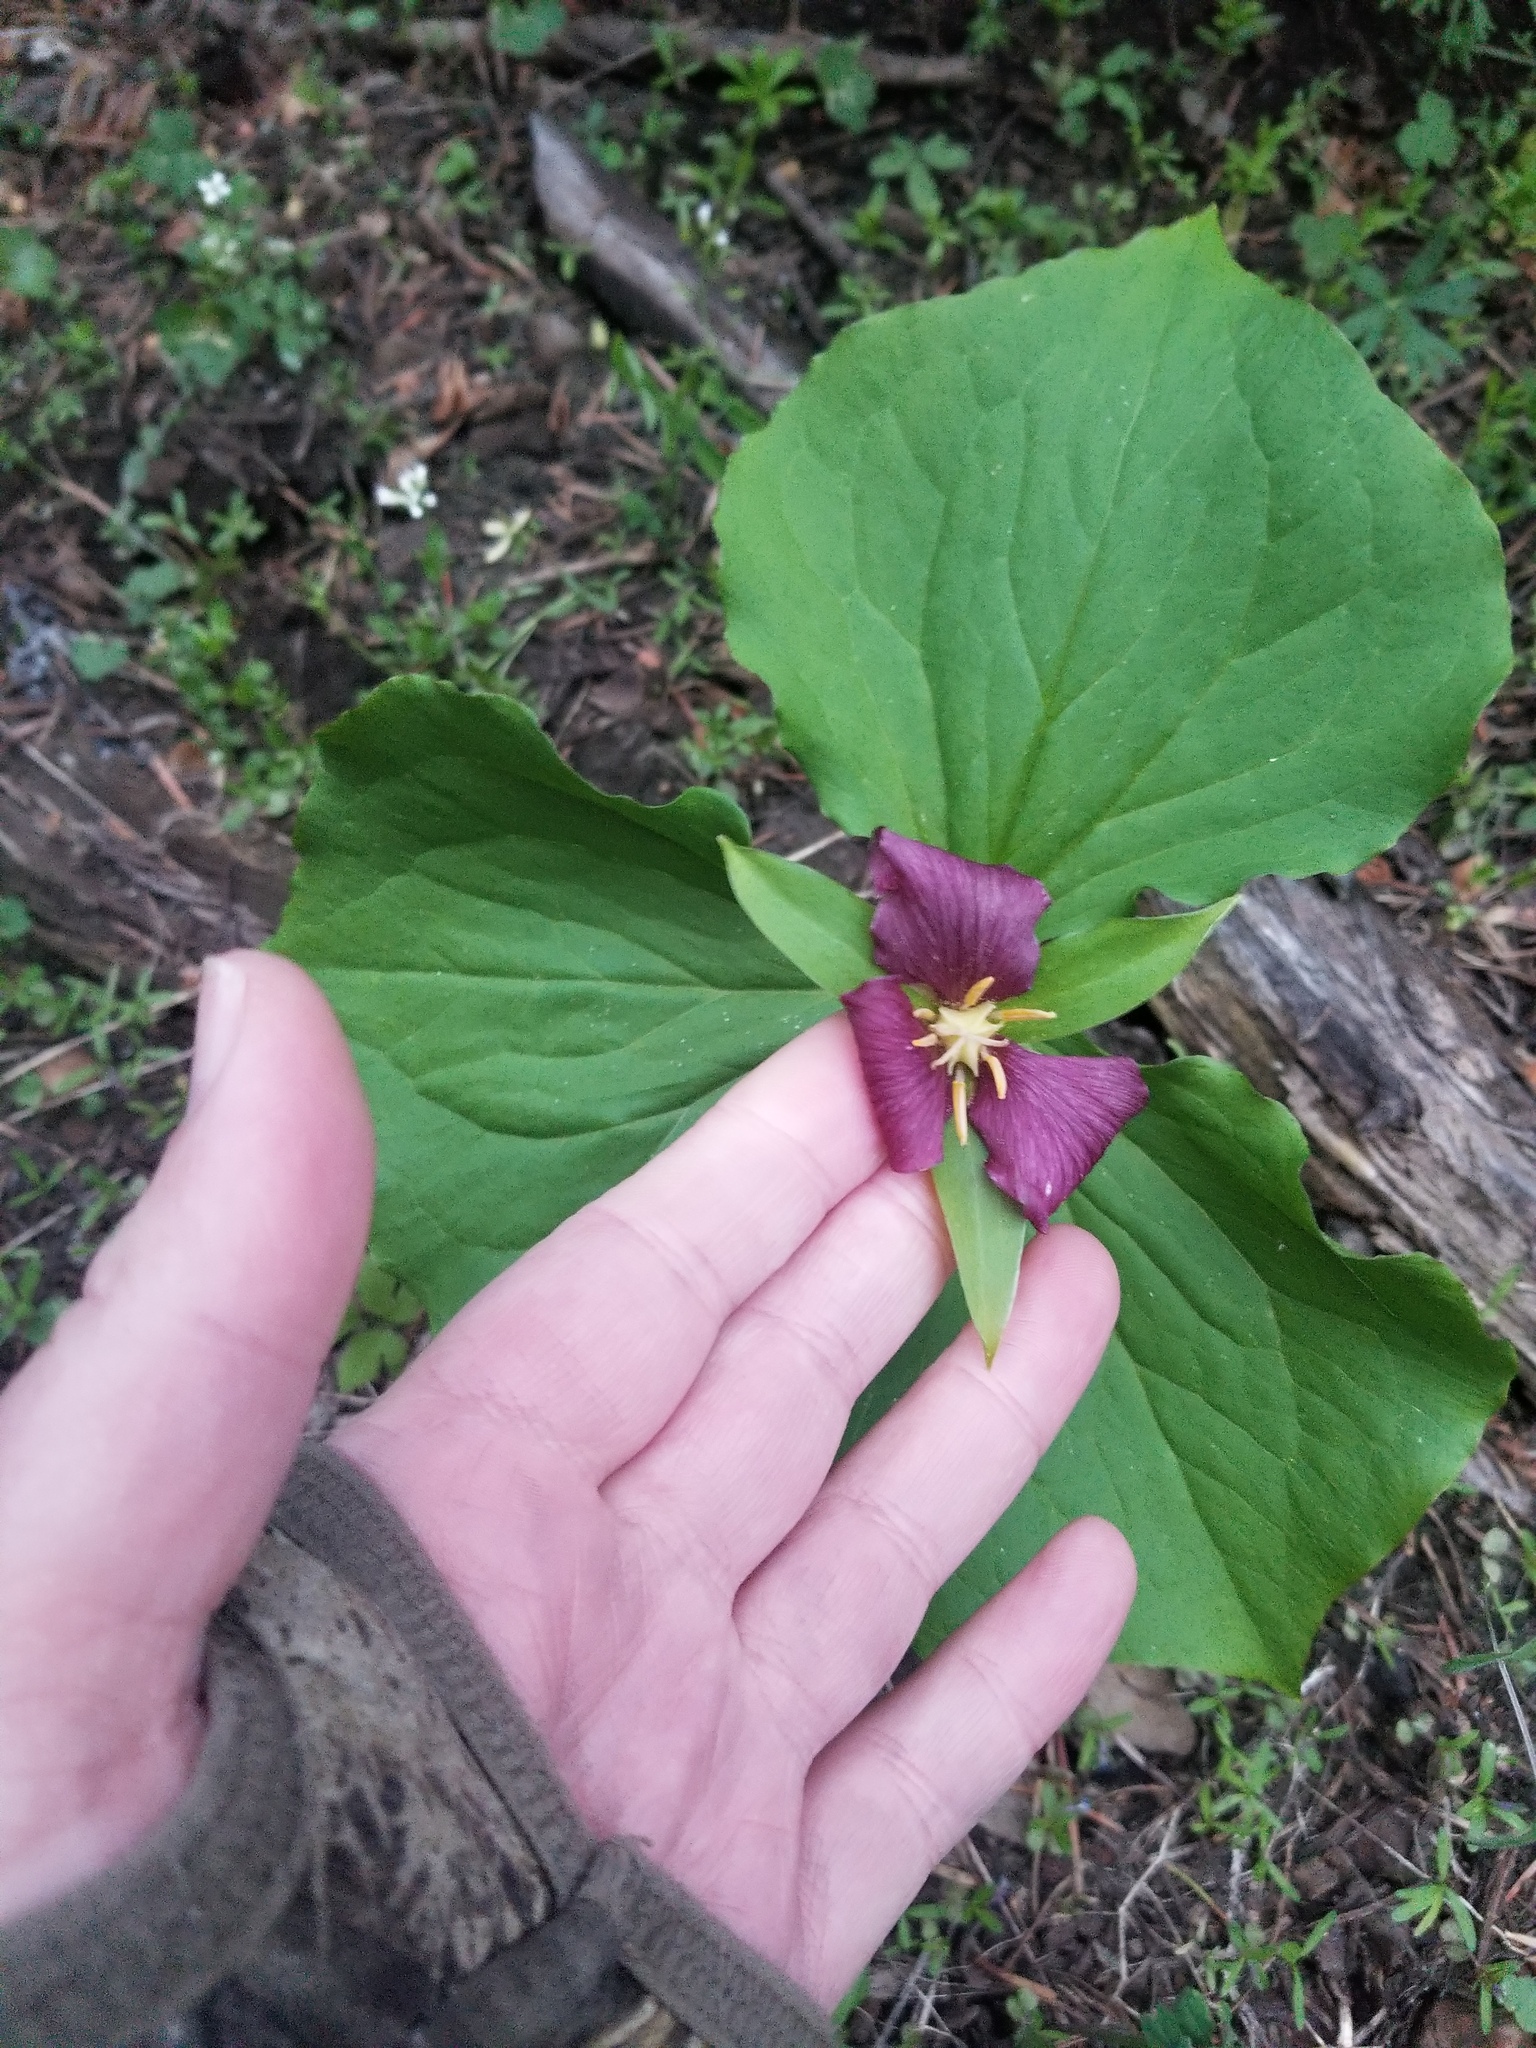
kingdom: Plantae
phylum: Tracheophyta
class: Liliopsida
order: Liliales
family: Melanthiaceae
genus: Trillium
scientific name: Trillium ovatum
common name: Pacific trillium
